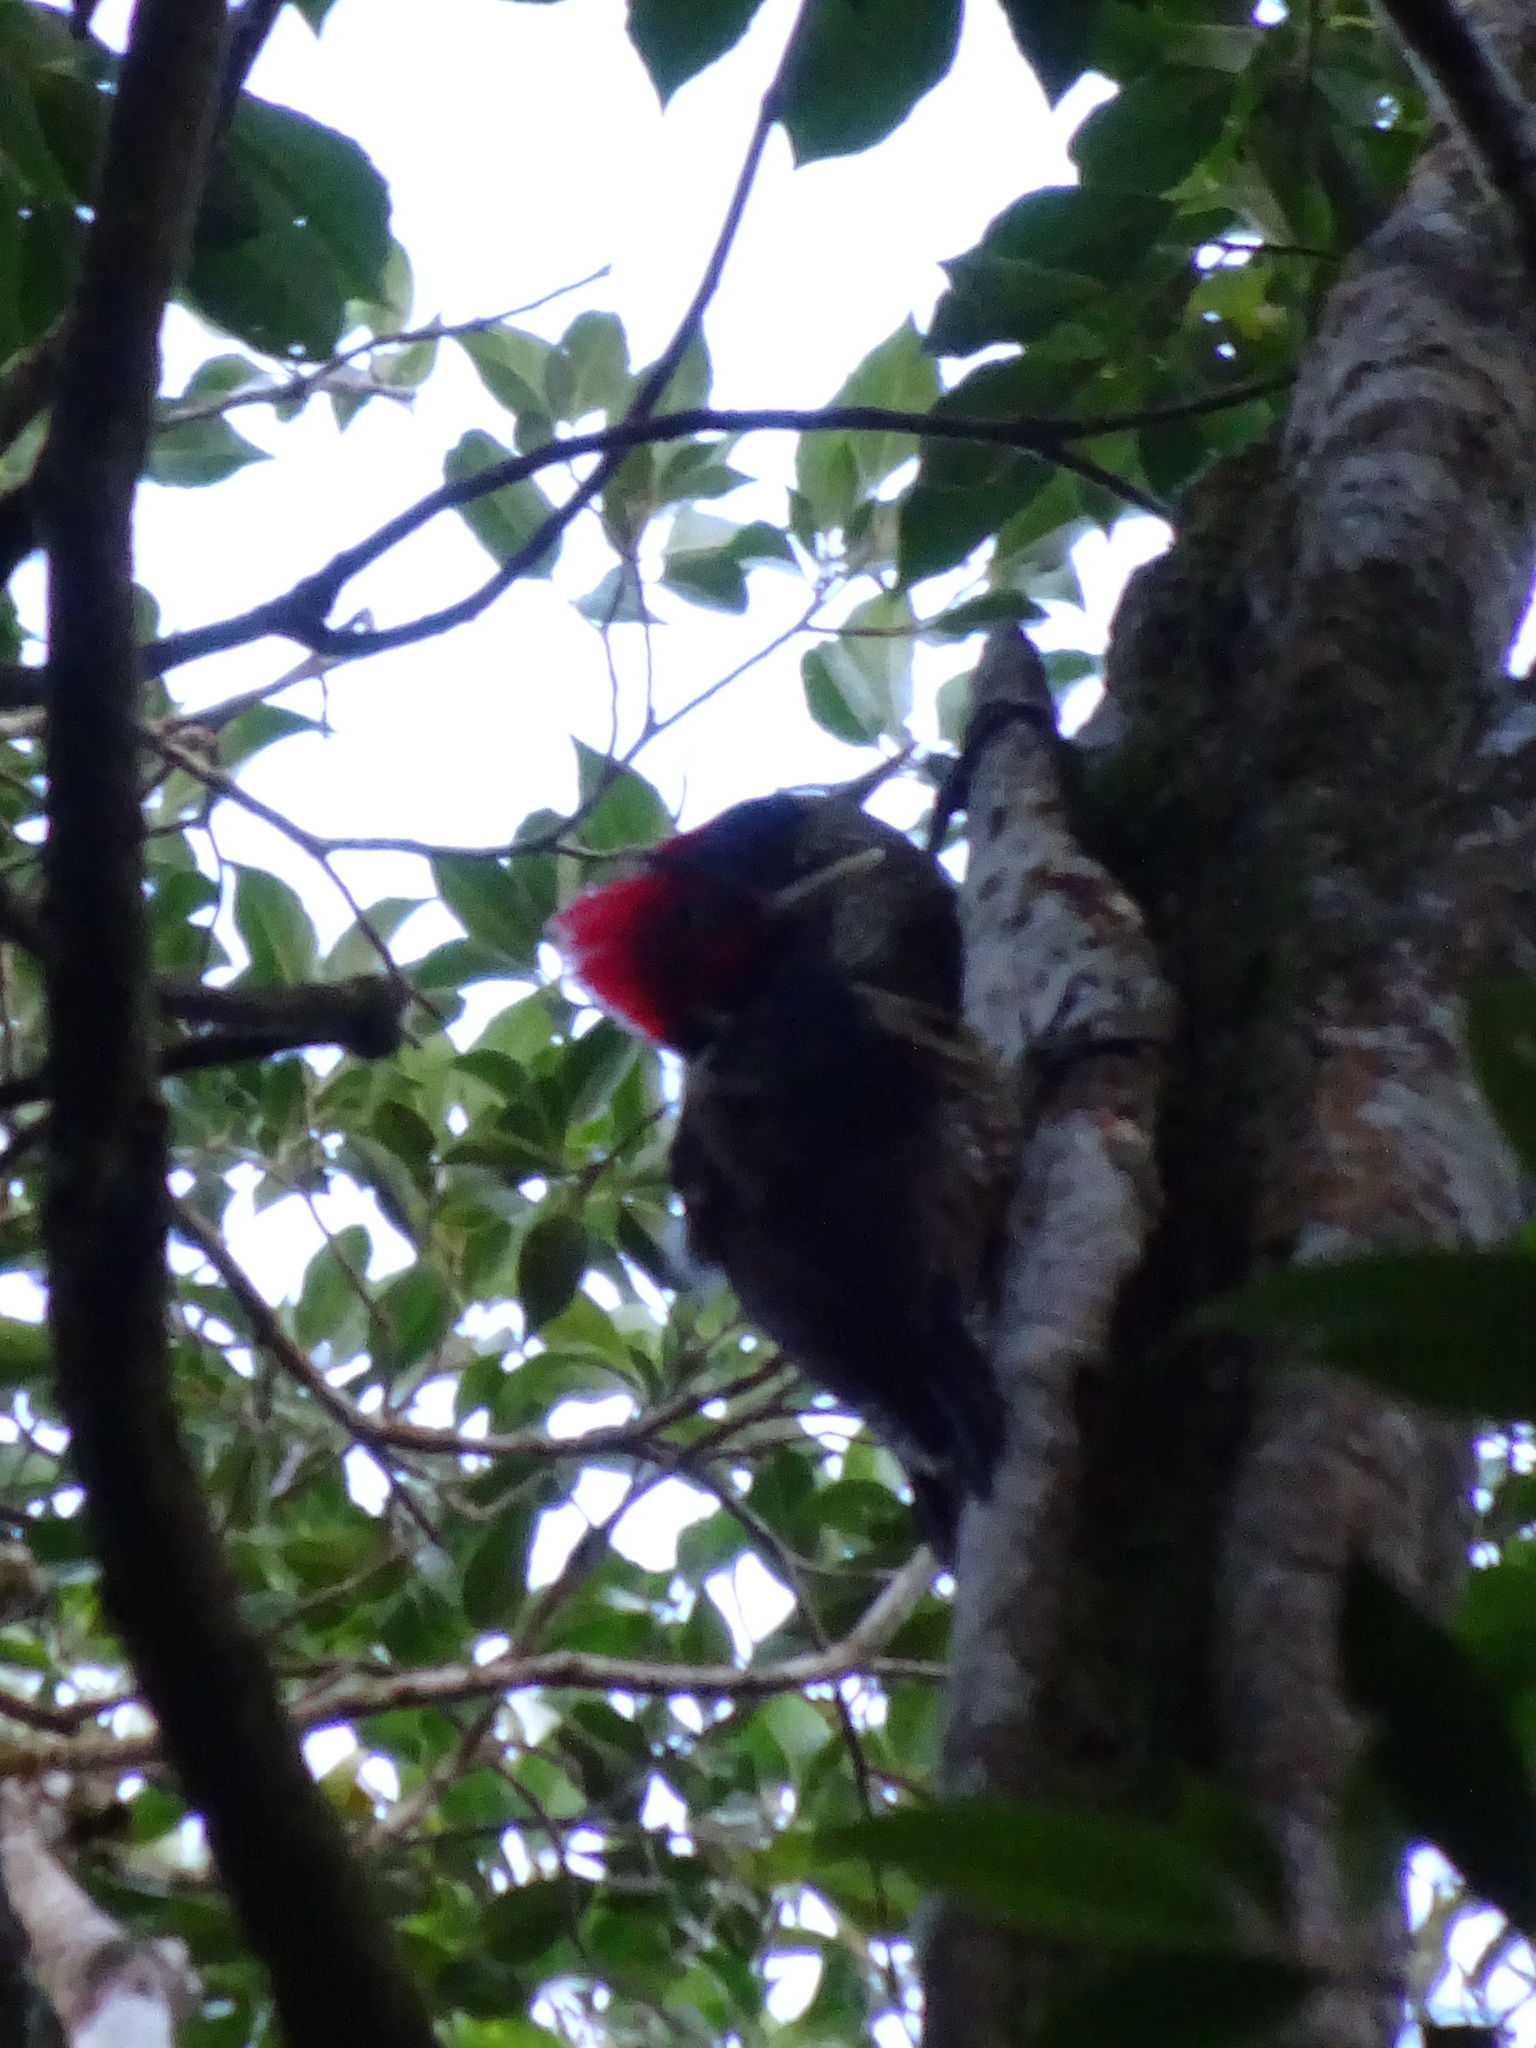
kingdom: Animalia
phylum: Chordata
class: Aves
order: Piciformes
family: Picidae
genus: Campephilus
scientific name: Campephilus guatemalensis
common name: Pale-billed woodpecker
